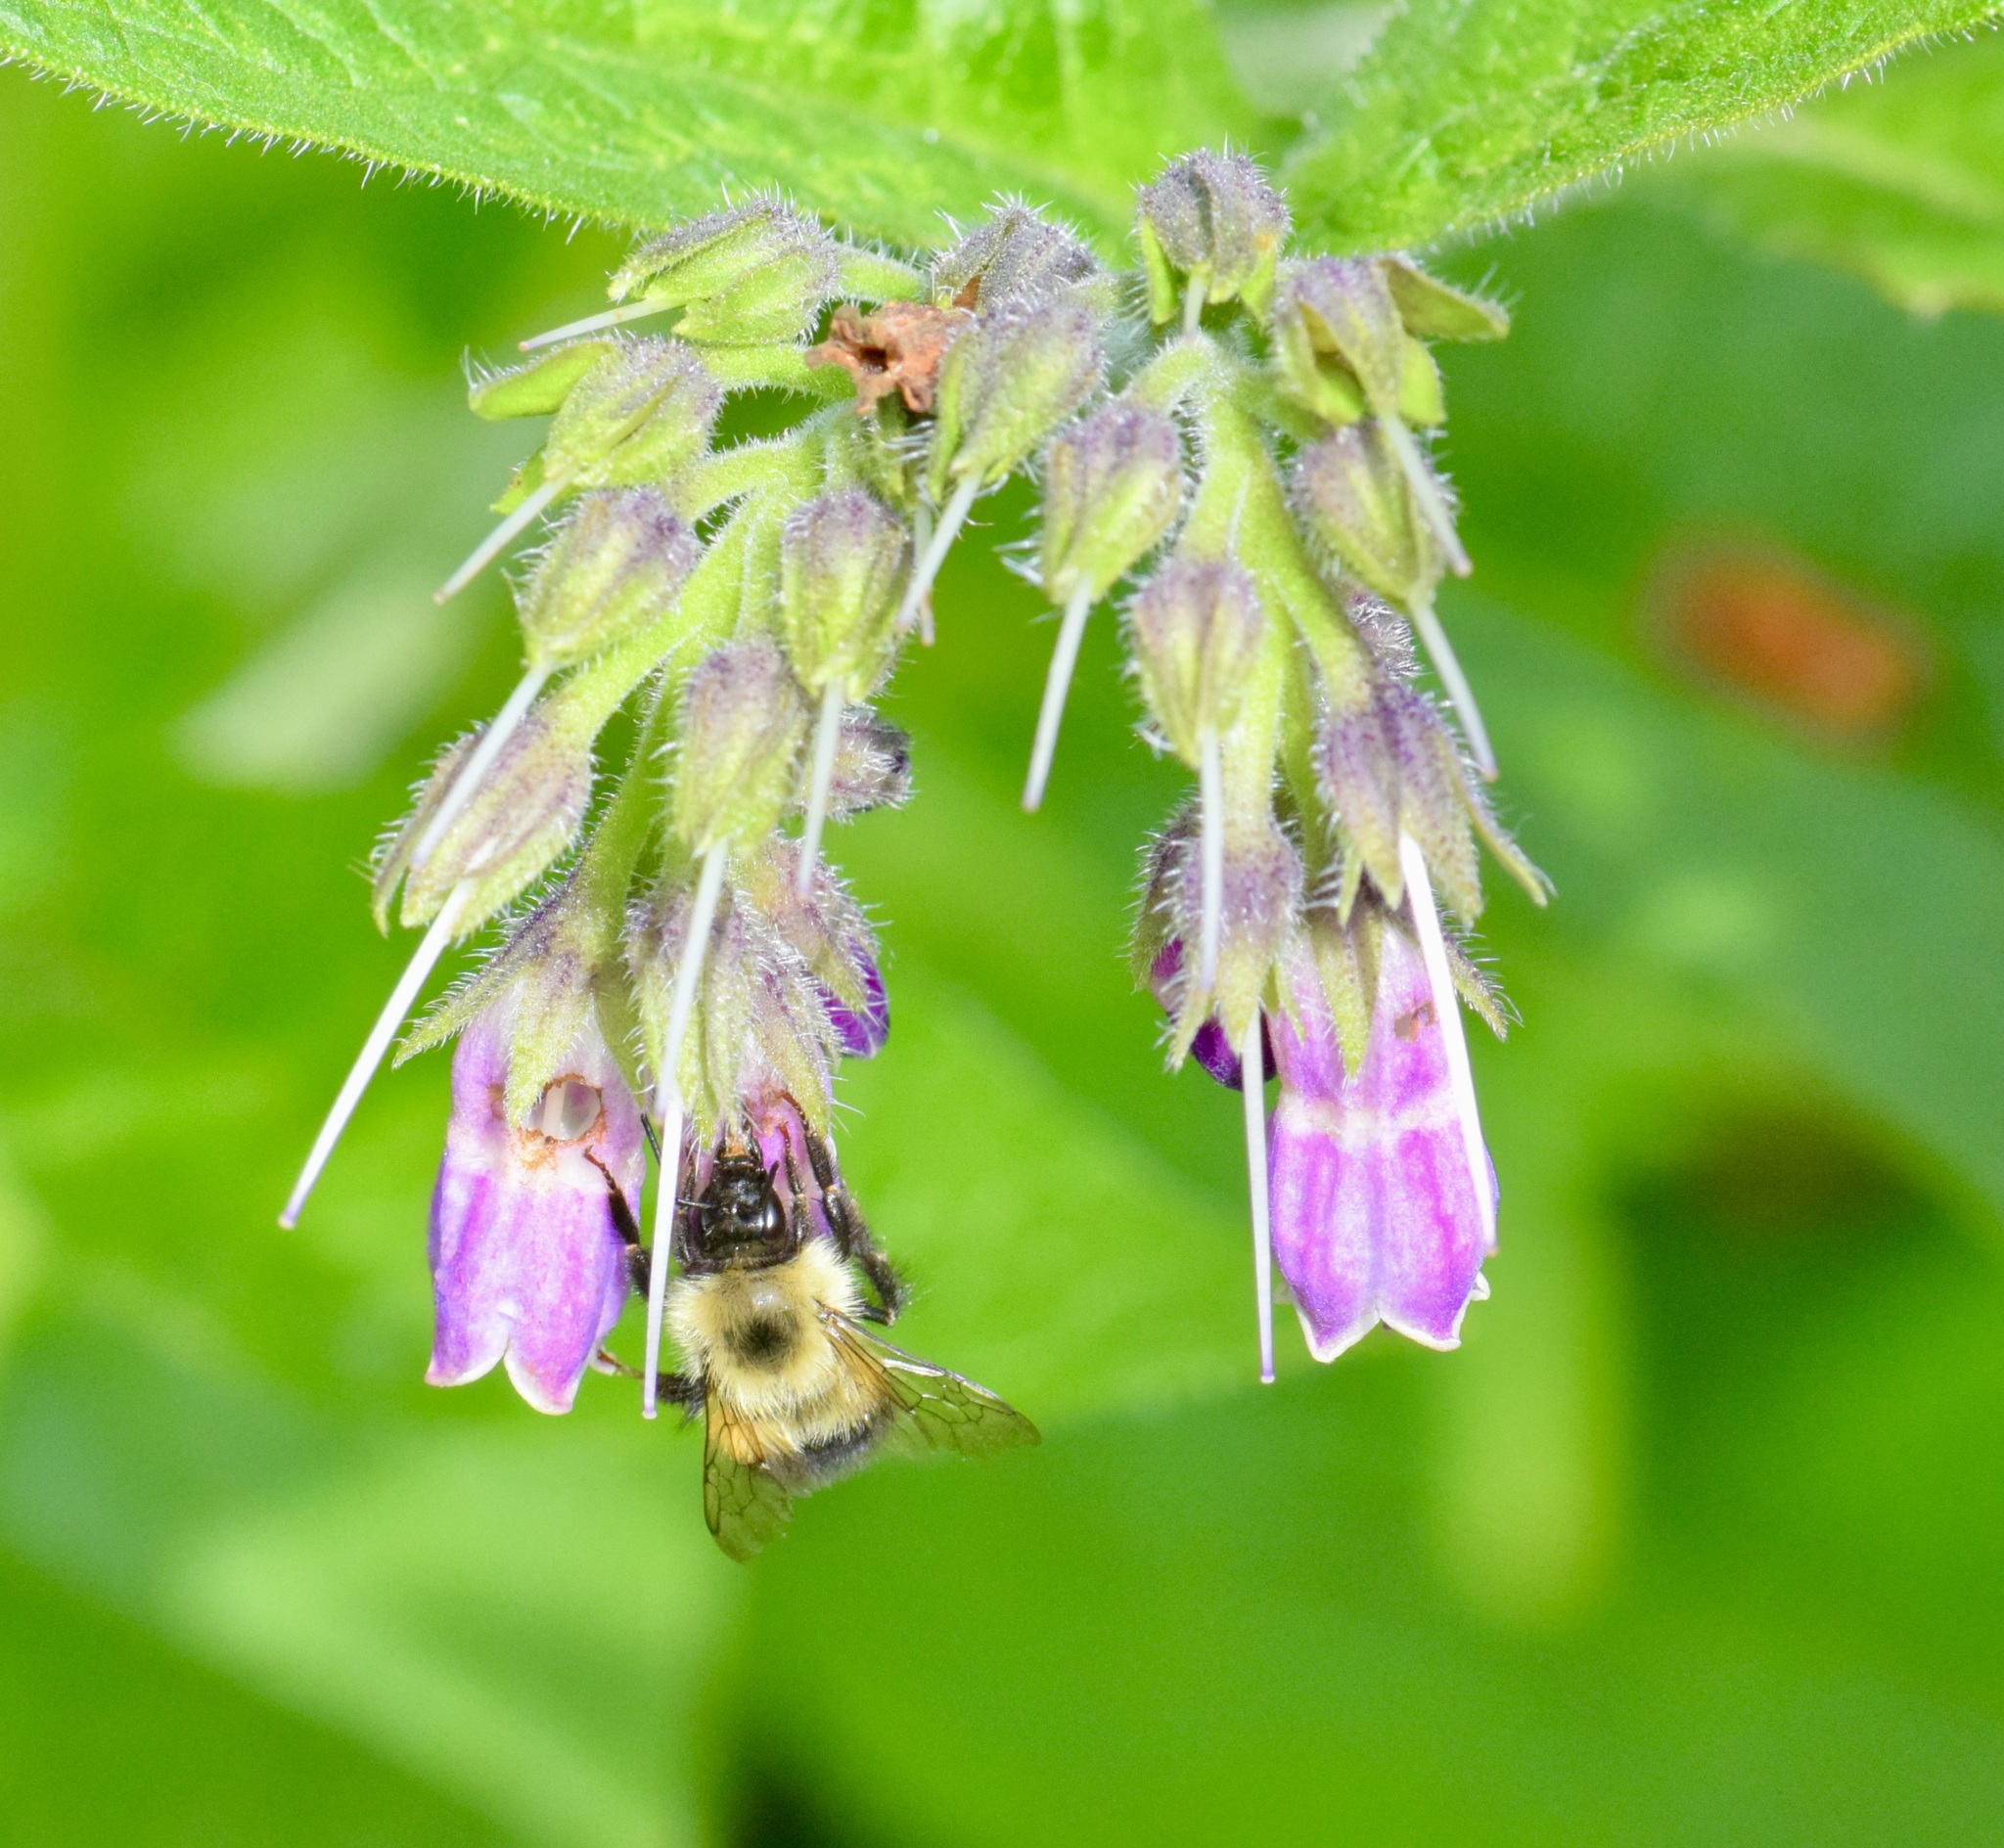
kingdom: Animalia
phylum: Arthropoda
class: Insecta
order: Hymenoptera
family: Apidae
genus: Bombus
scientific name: Bombus vagans
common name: Half-black bumble bee
